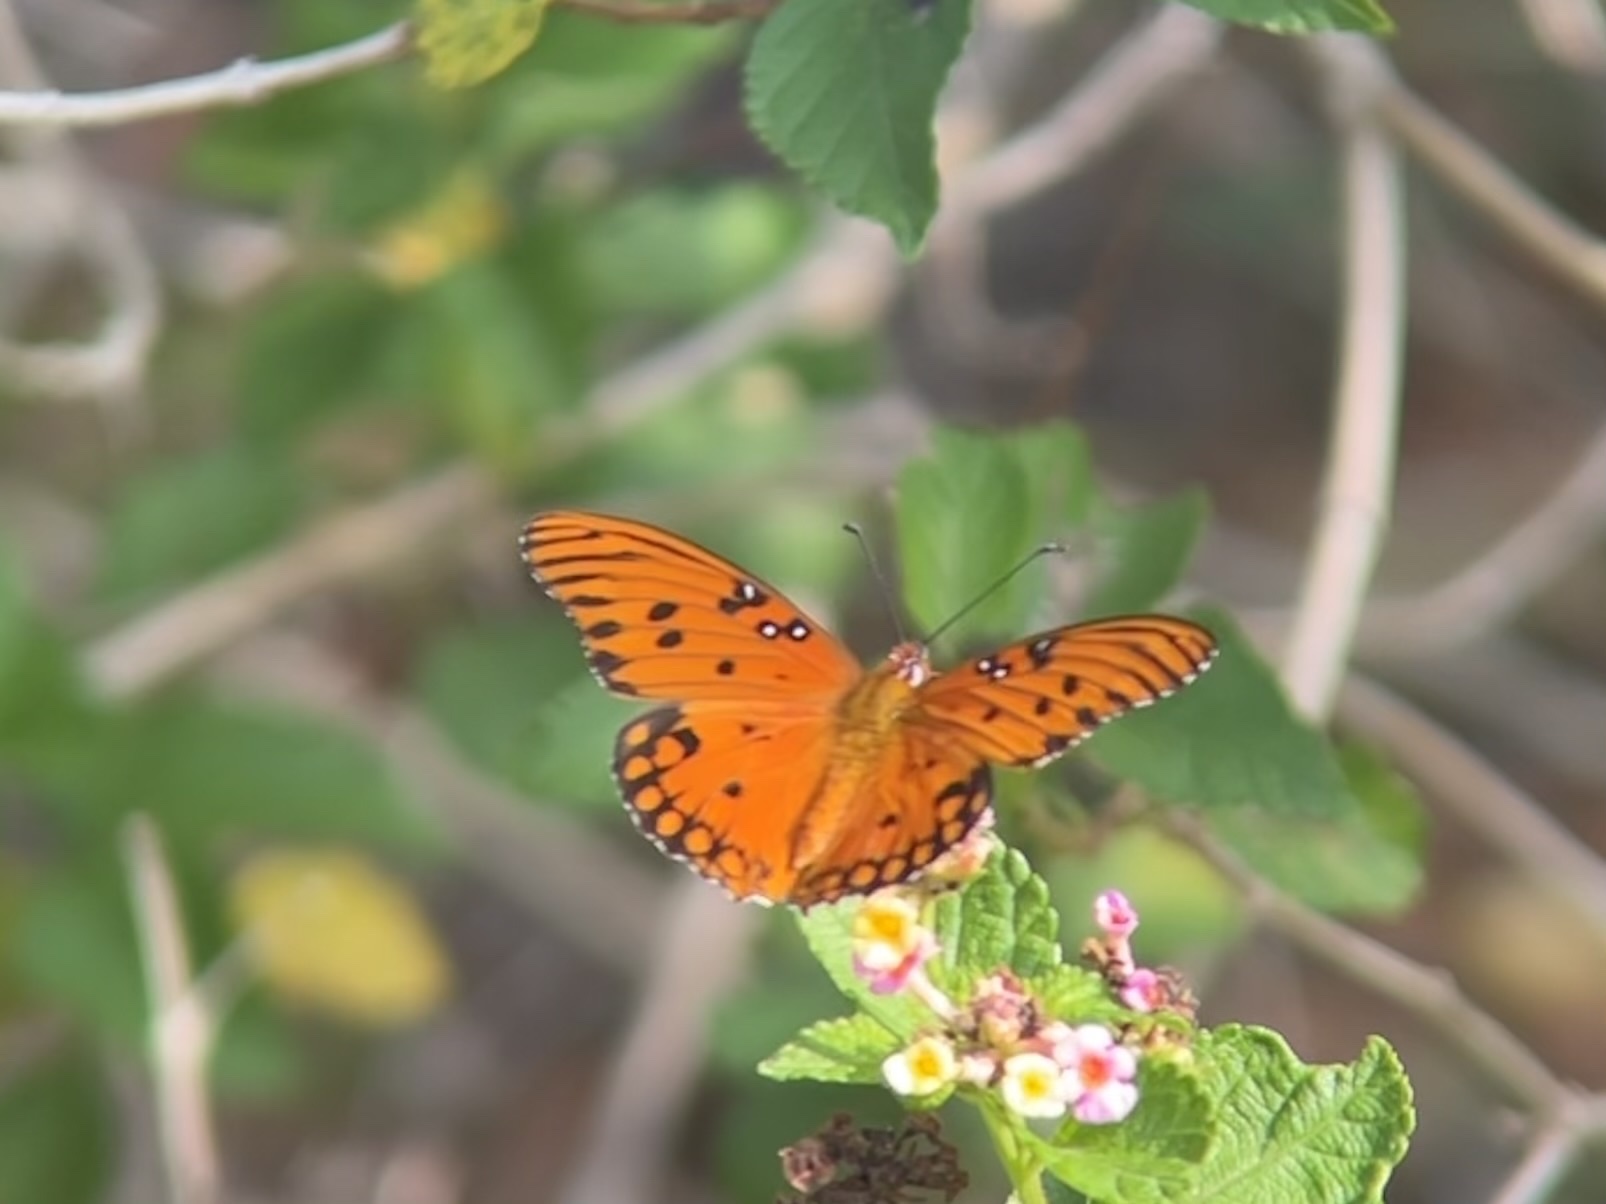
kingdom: Animalia
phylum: Arthropoda
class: Insecta
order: Lepidoptera
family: Nymphalidae
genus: Dione
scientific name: Dione vanillae
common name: Gulf fritillary
